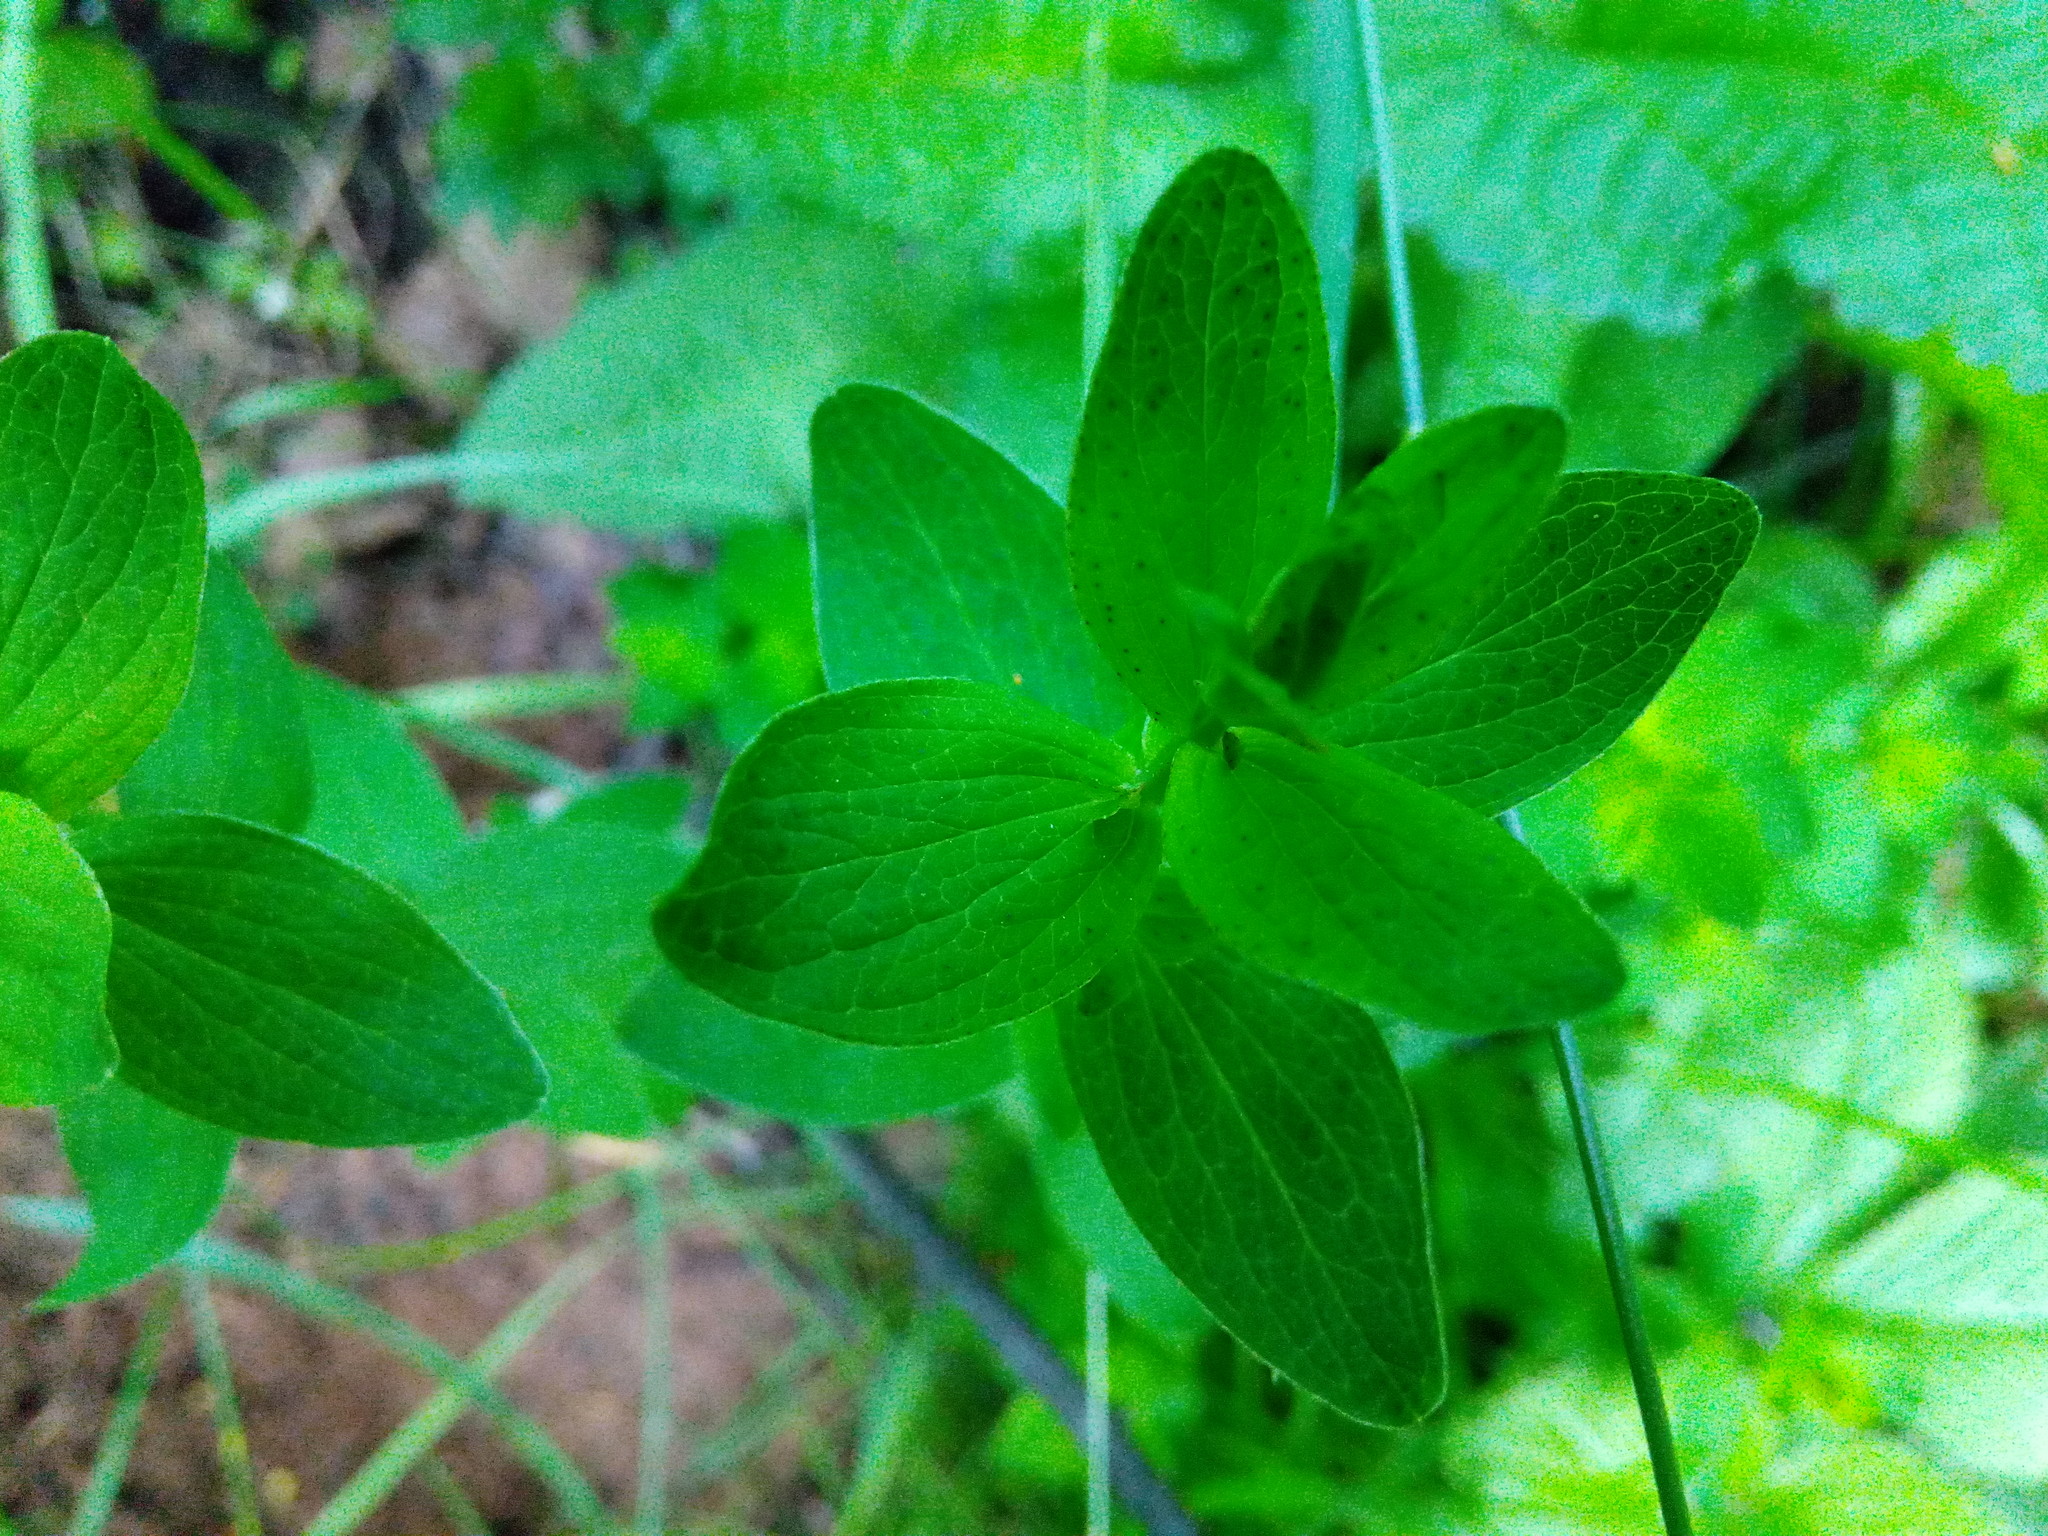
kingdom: Plantae
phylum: Tracheophyta
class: Magnoliopsida
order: Malpighiales
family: Hypericaceae
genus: Hypericum
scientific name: Hypericum maculatum
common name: Imperforate st. john's-wort
